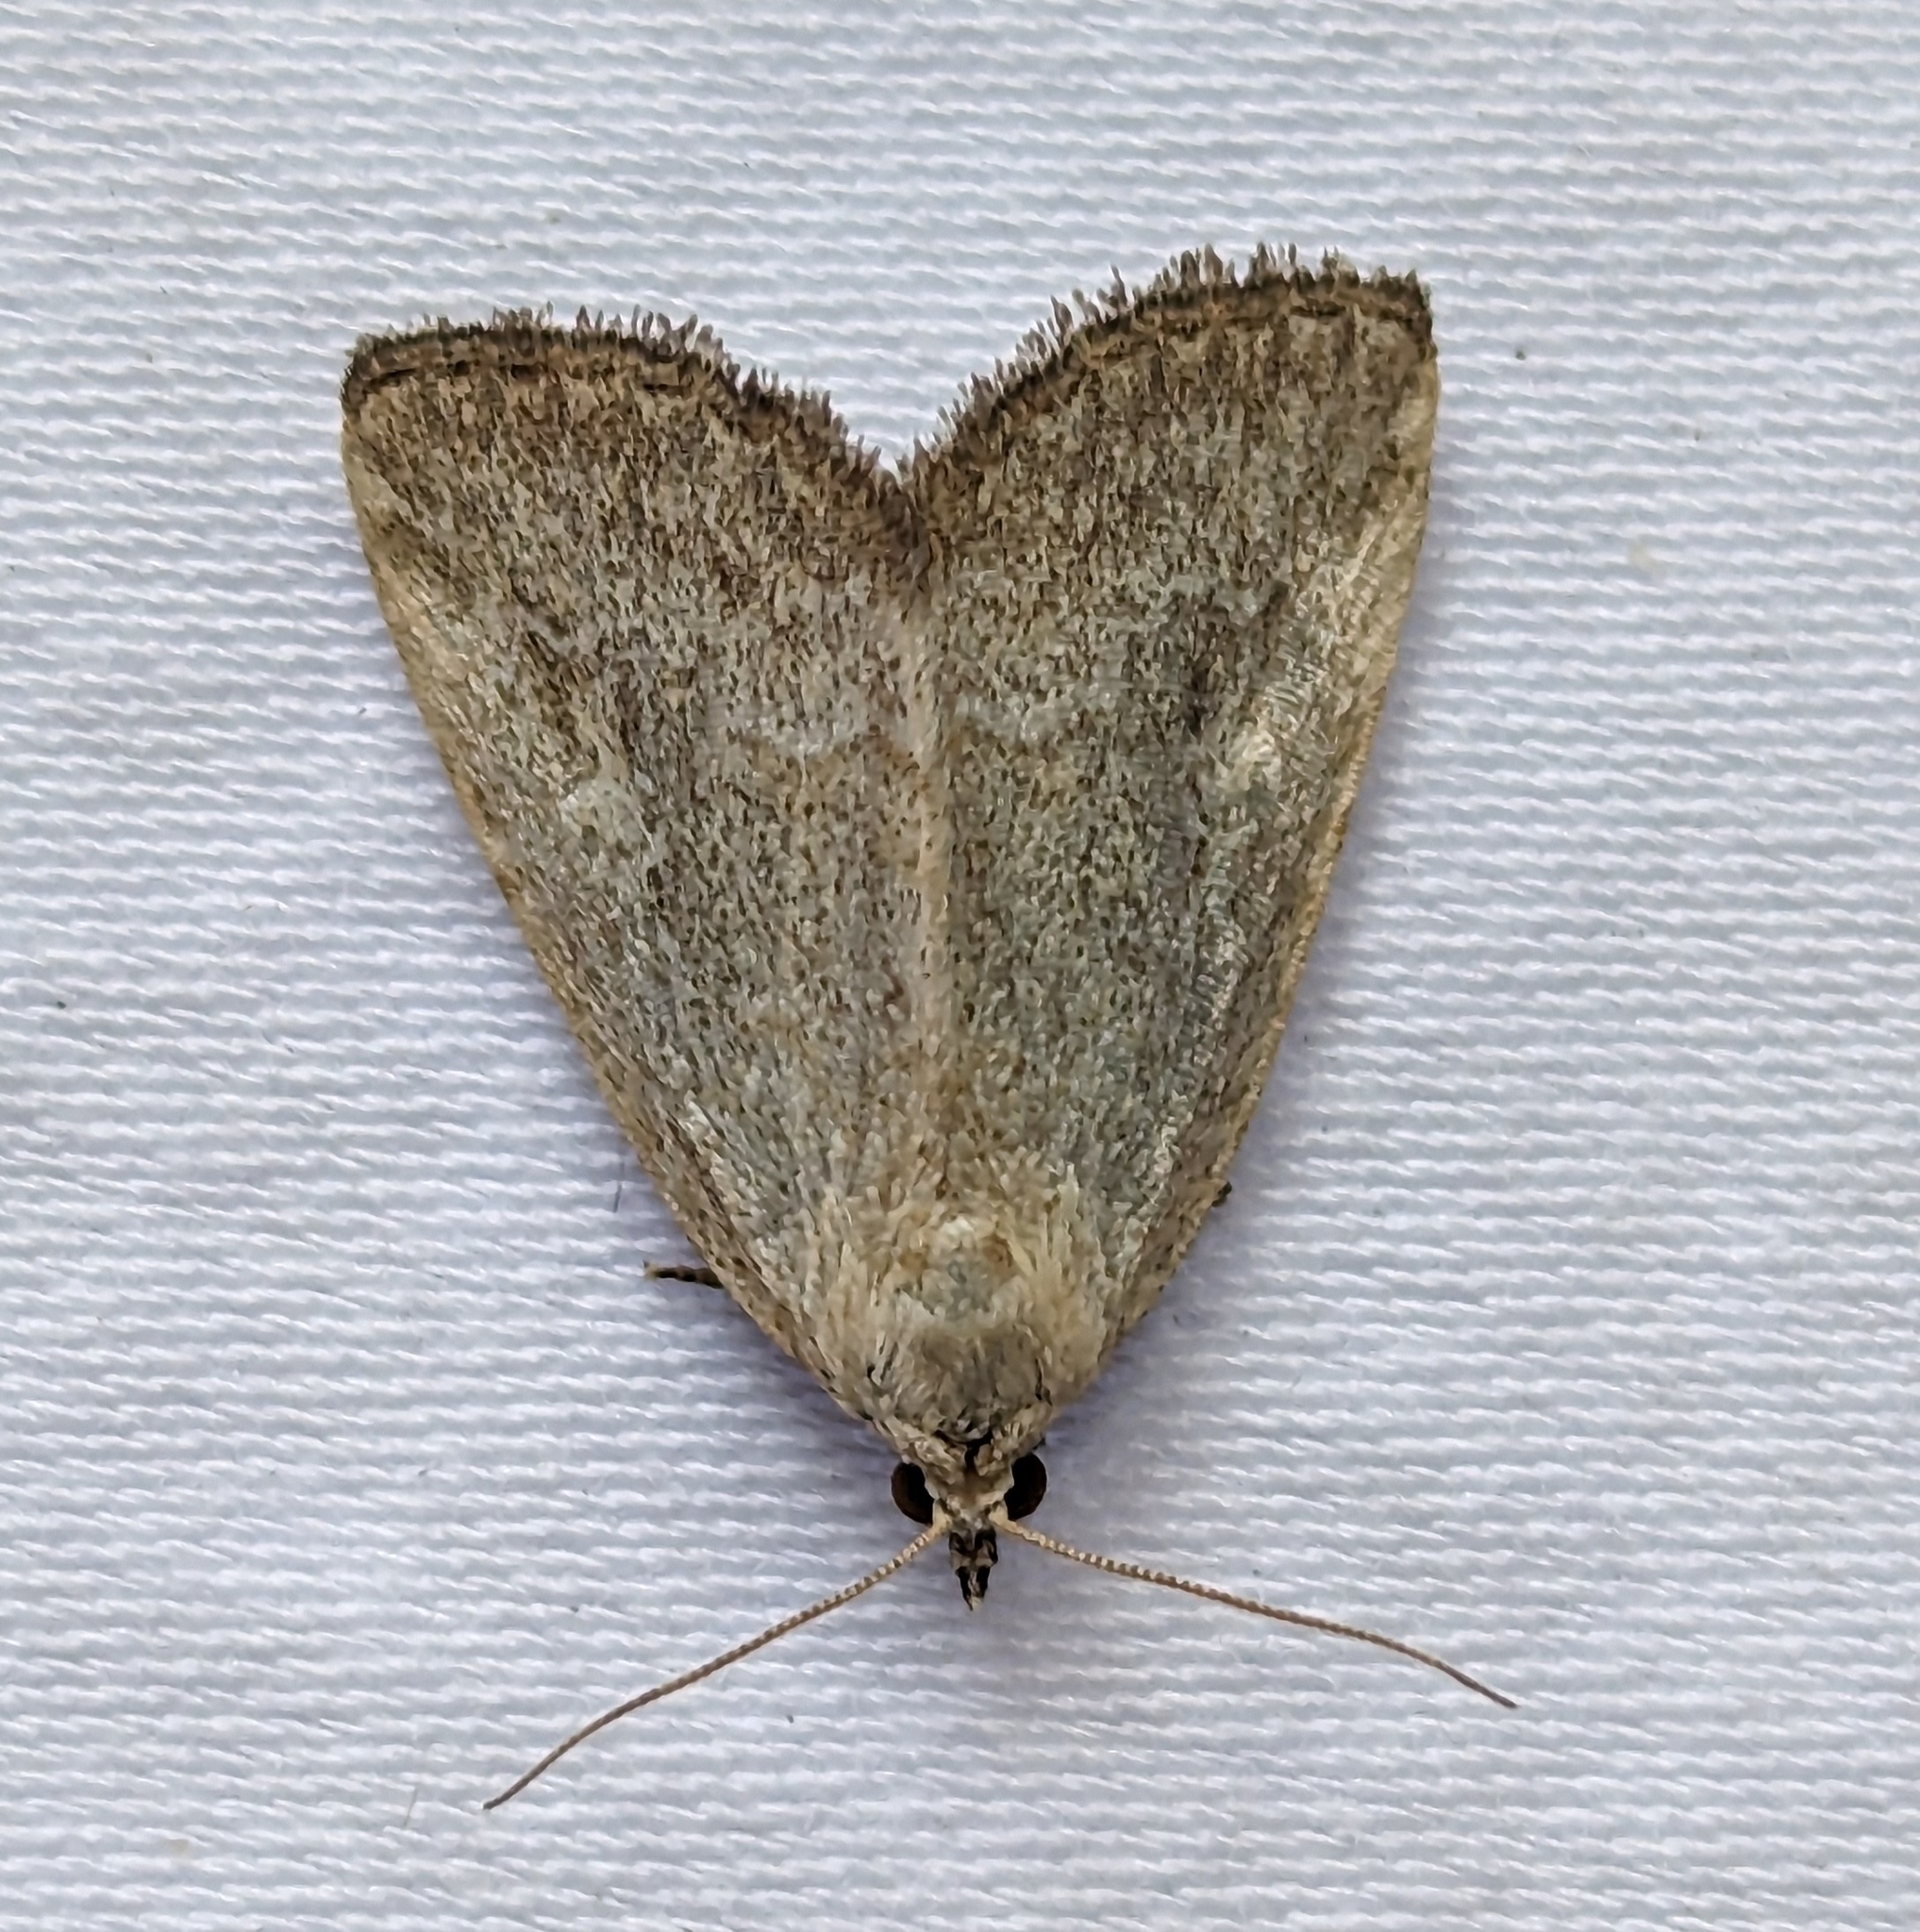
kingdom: Animalia
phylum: Arthropoda
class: Insecta
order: Lepidoptera
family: Noctuidae
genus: Protodeltote
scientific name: Protodeltote albidula
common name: Pale glyph
